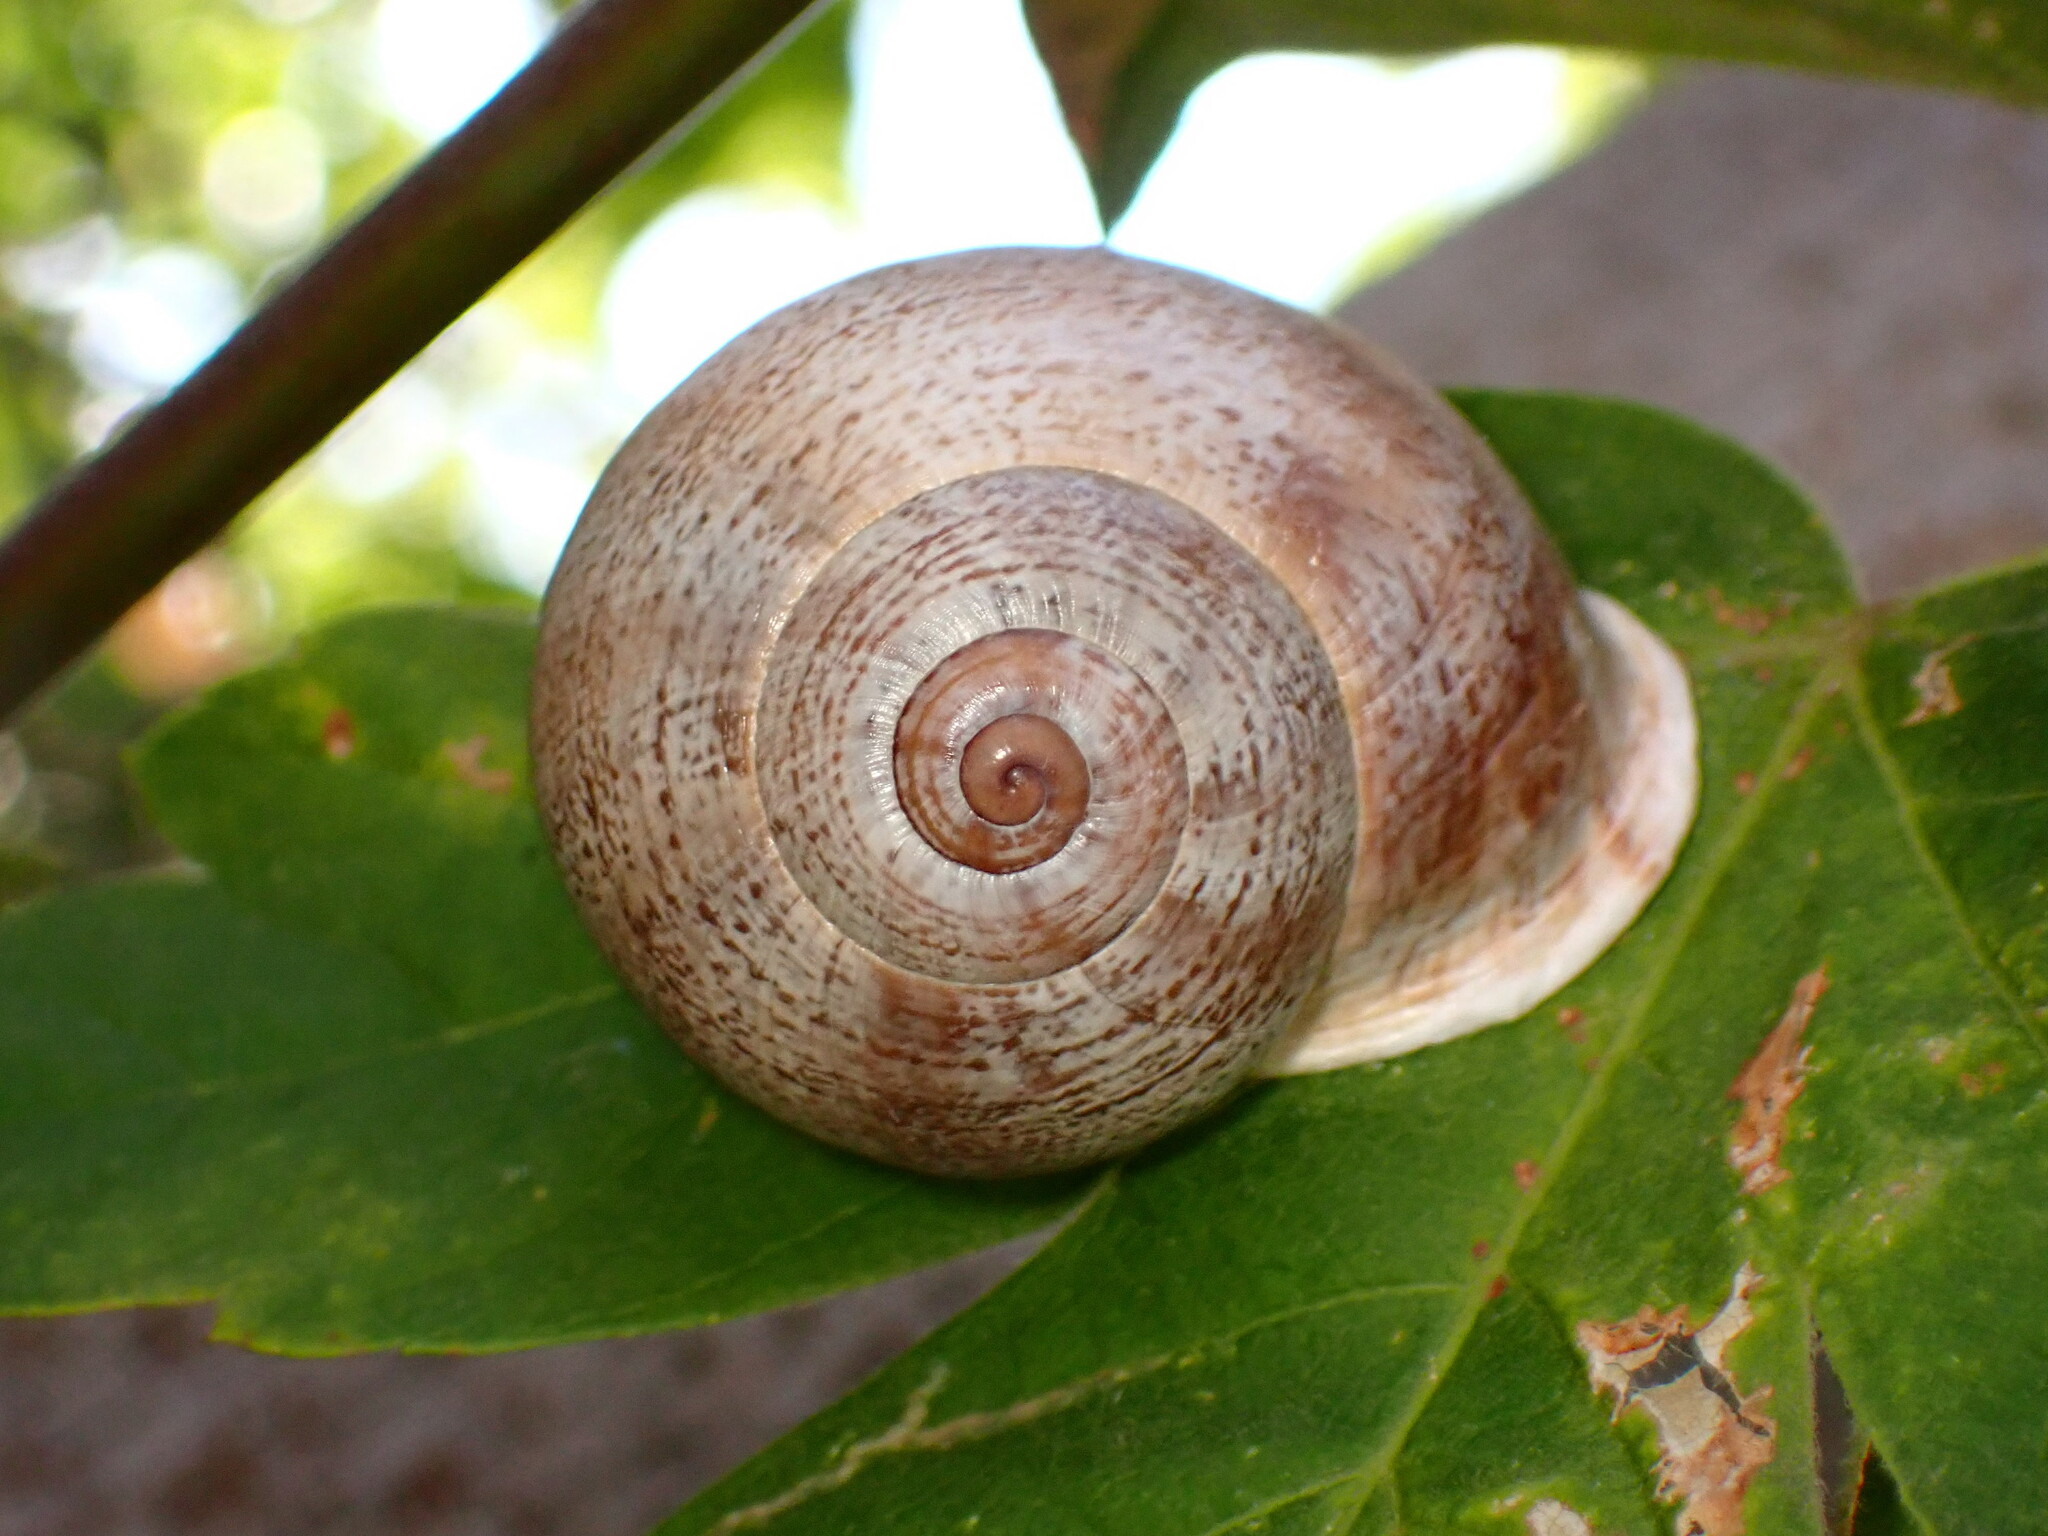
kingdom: Animalia
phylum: Mollusca
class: Gastropoda
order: Stylommatophora
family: Helicidae
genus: Otala
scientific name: Otala lactea
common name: Milk snail
